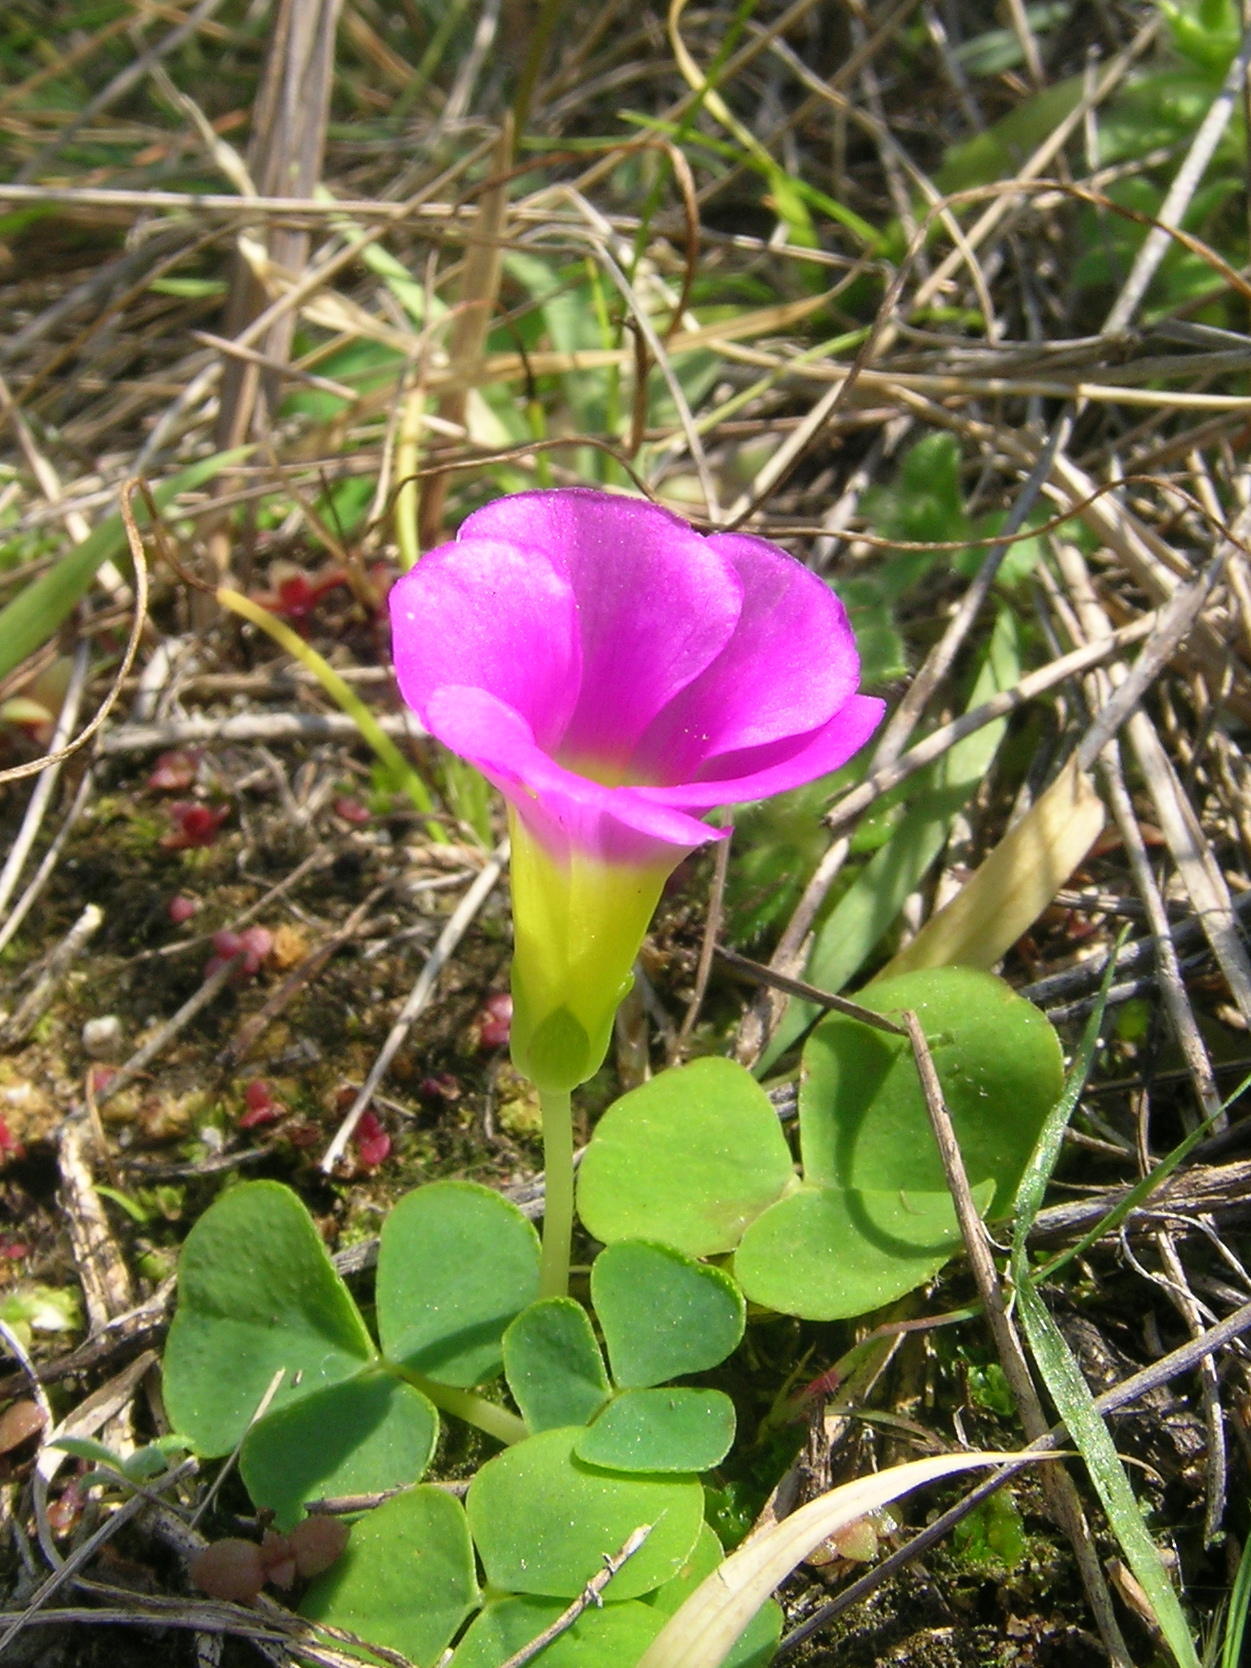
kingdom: Plantae
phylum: Tracheophyta
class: Magnoliopsida
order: Oxalidales
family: Oxalidaceae
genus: Oxalis
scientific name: Oxalis purpurea
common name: Purple woodsorrel
